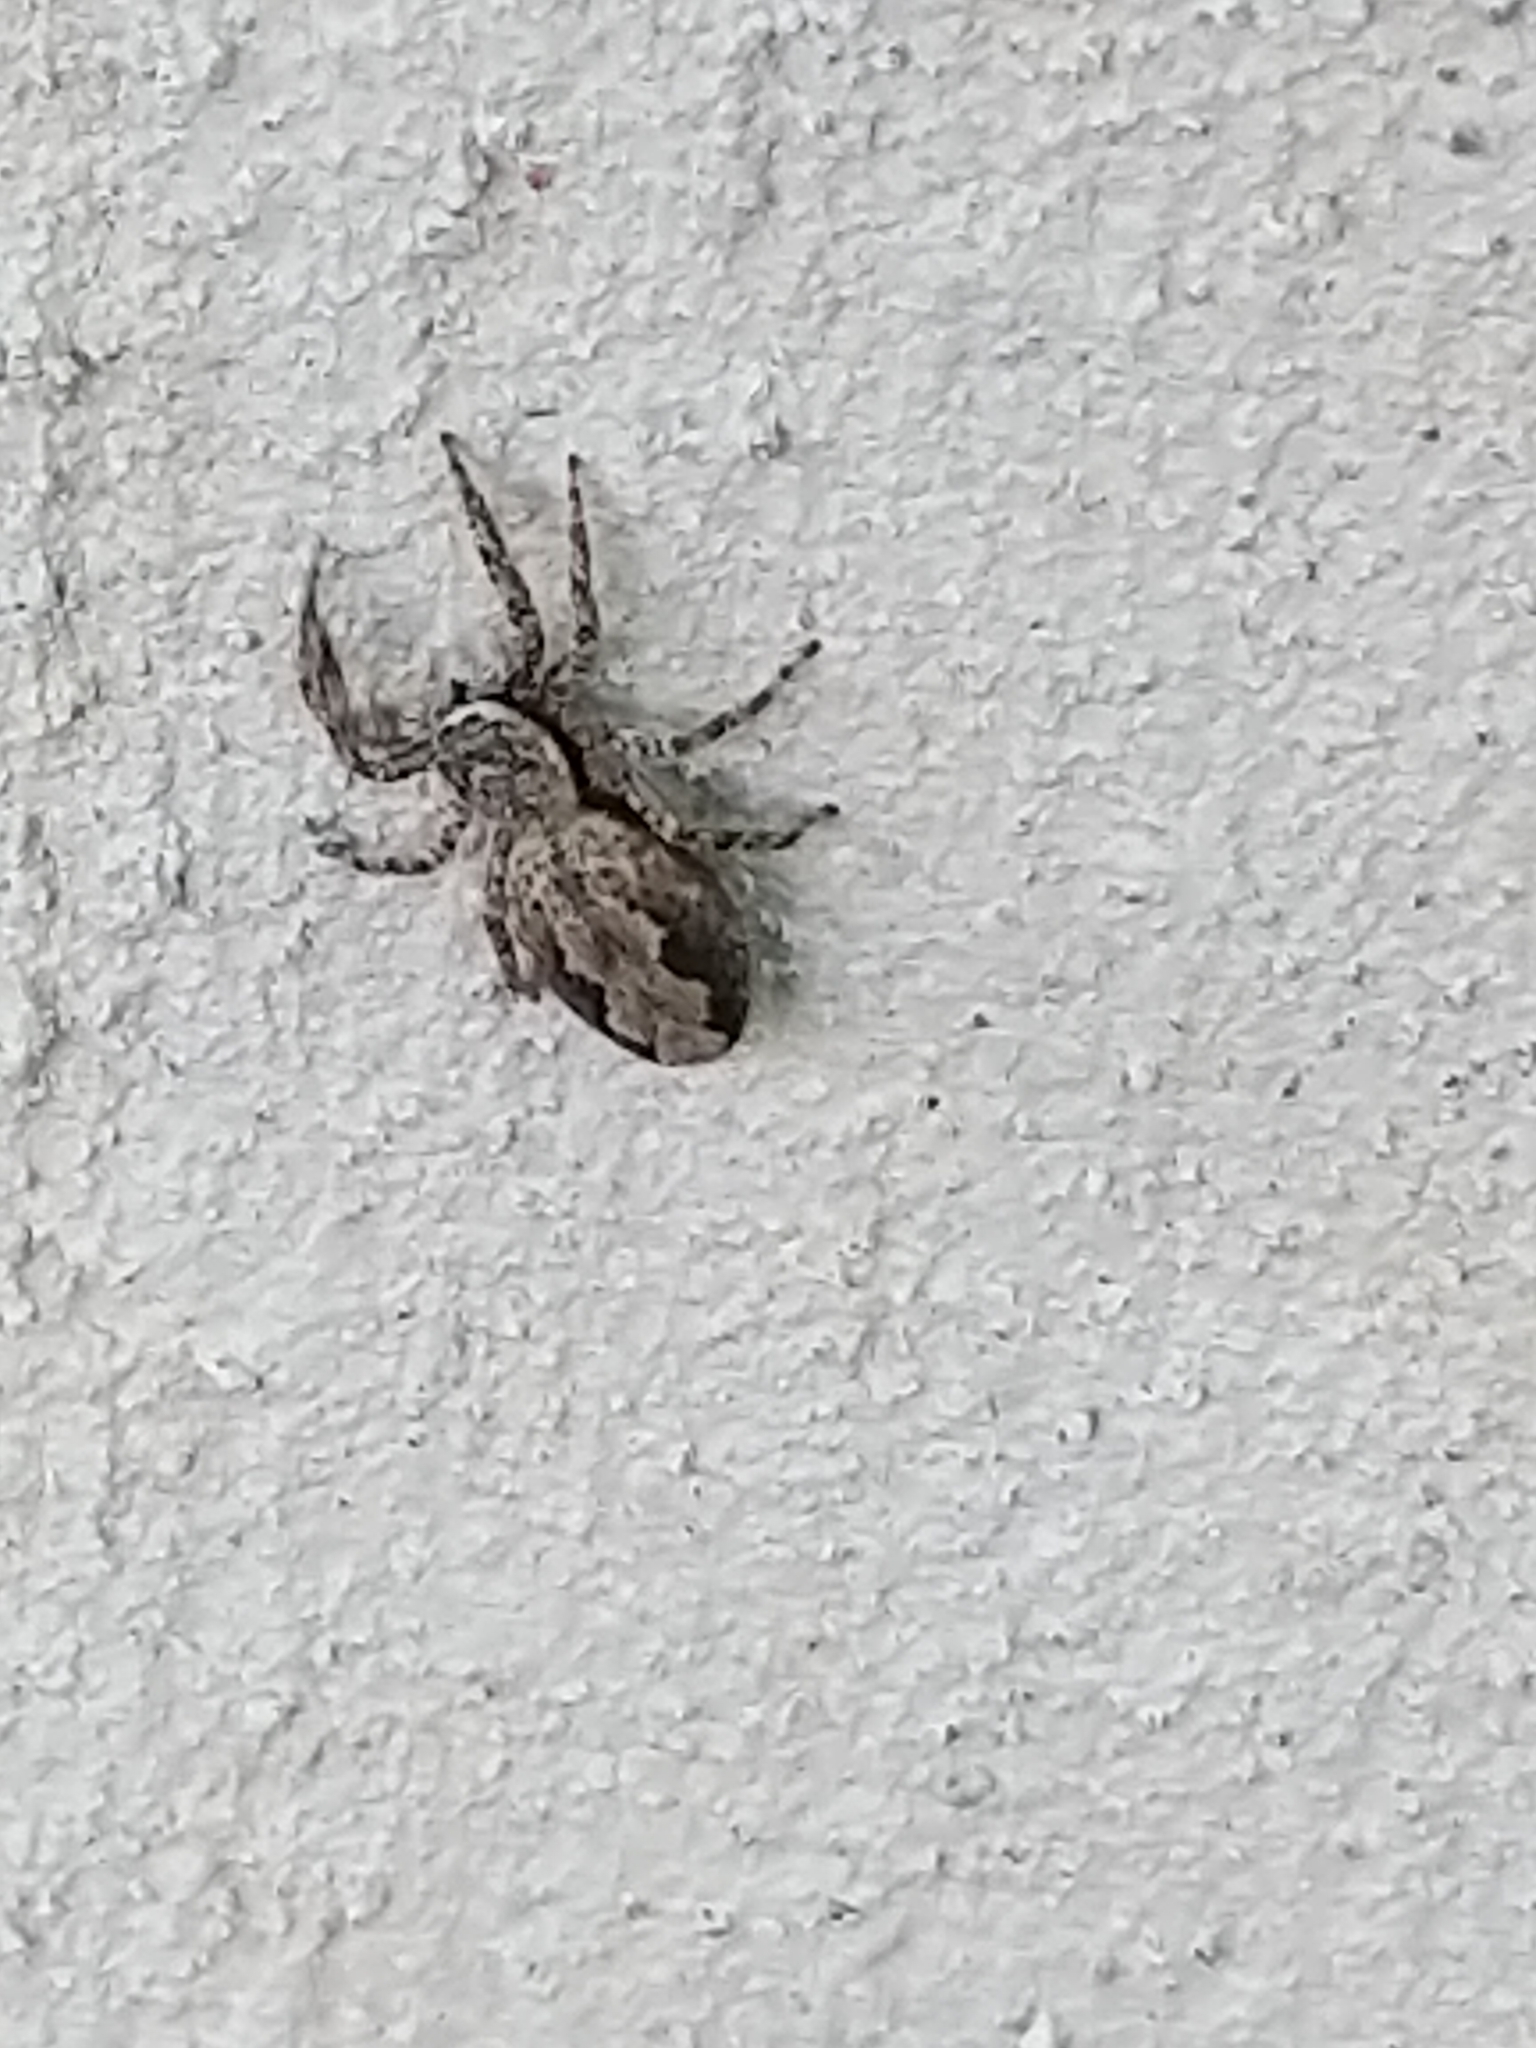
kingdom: Animalia
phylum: Arthropoda
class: Arachnida
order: Araneae
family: Salticidae
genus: Platycryptus
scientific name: Platycryptus undatus
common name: Tan jumping spider
